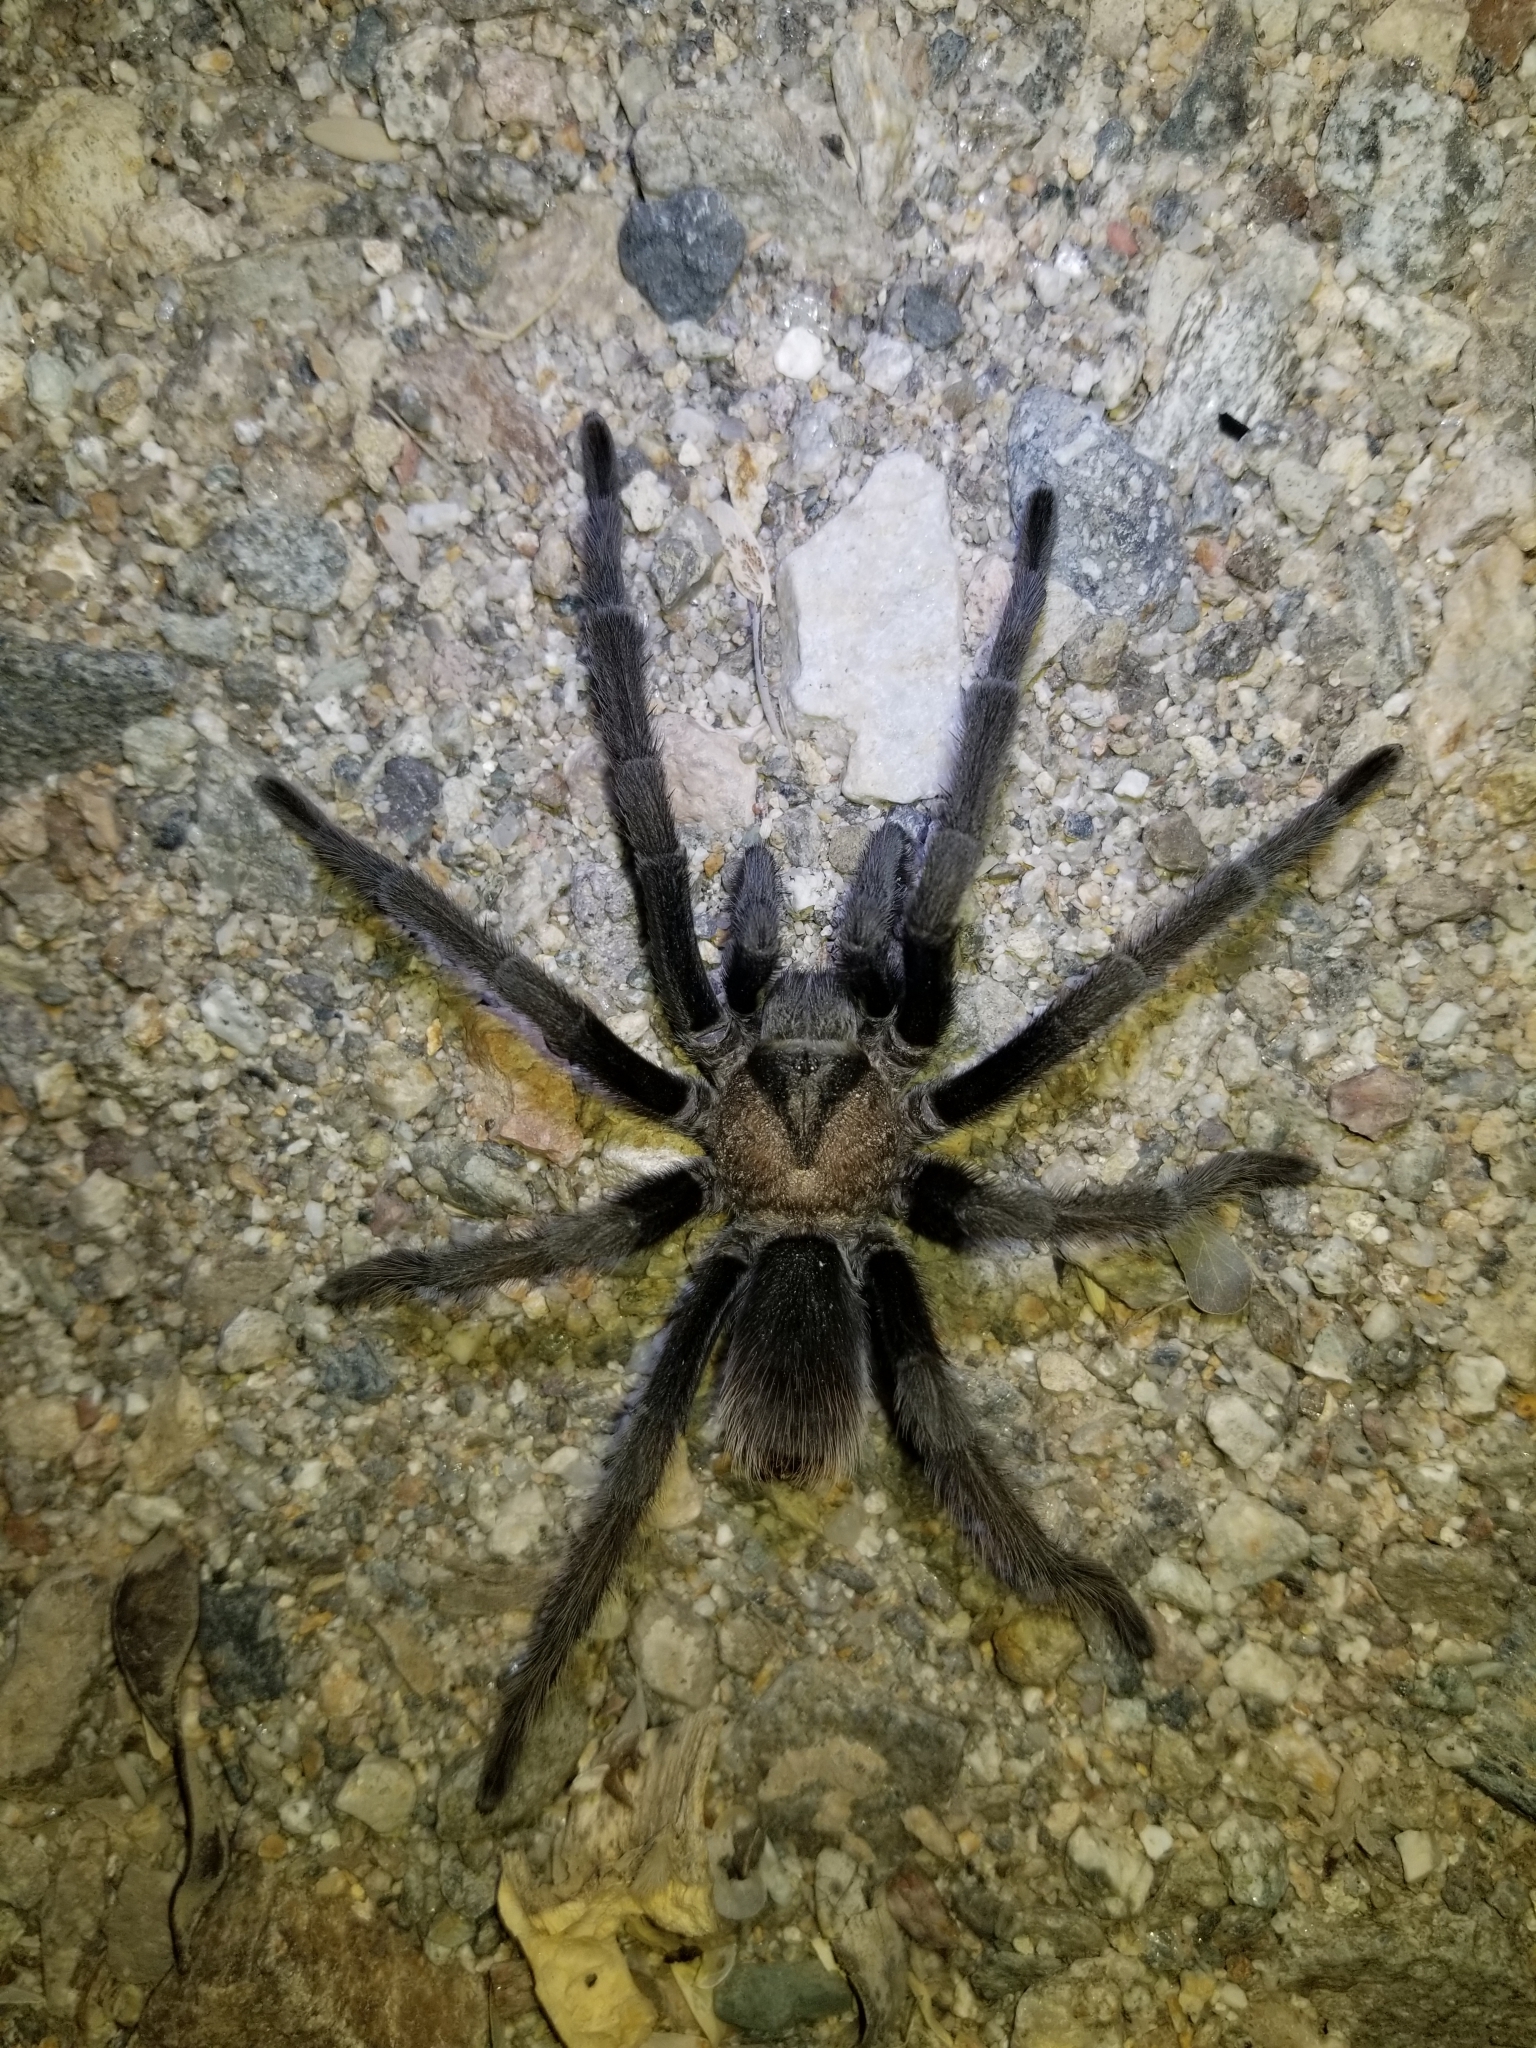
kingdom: Animalia
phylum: Arthropoda
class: Arachnida
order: Araneae
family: Theraphosidae
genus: Aphonopelma
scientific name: Aphonopelma eutylenum
